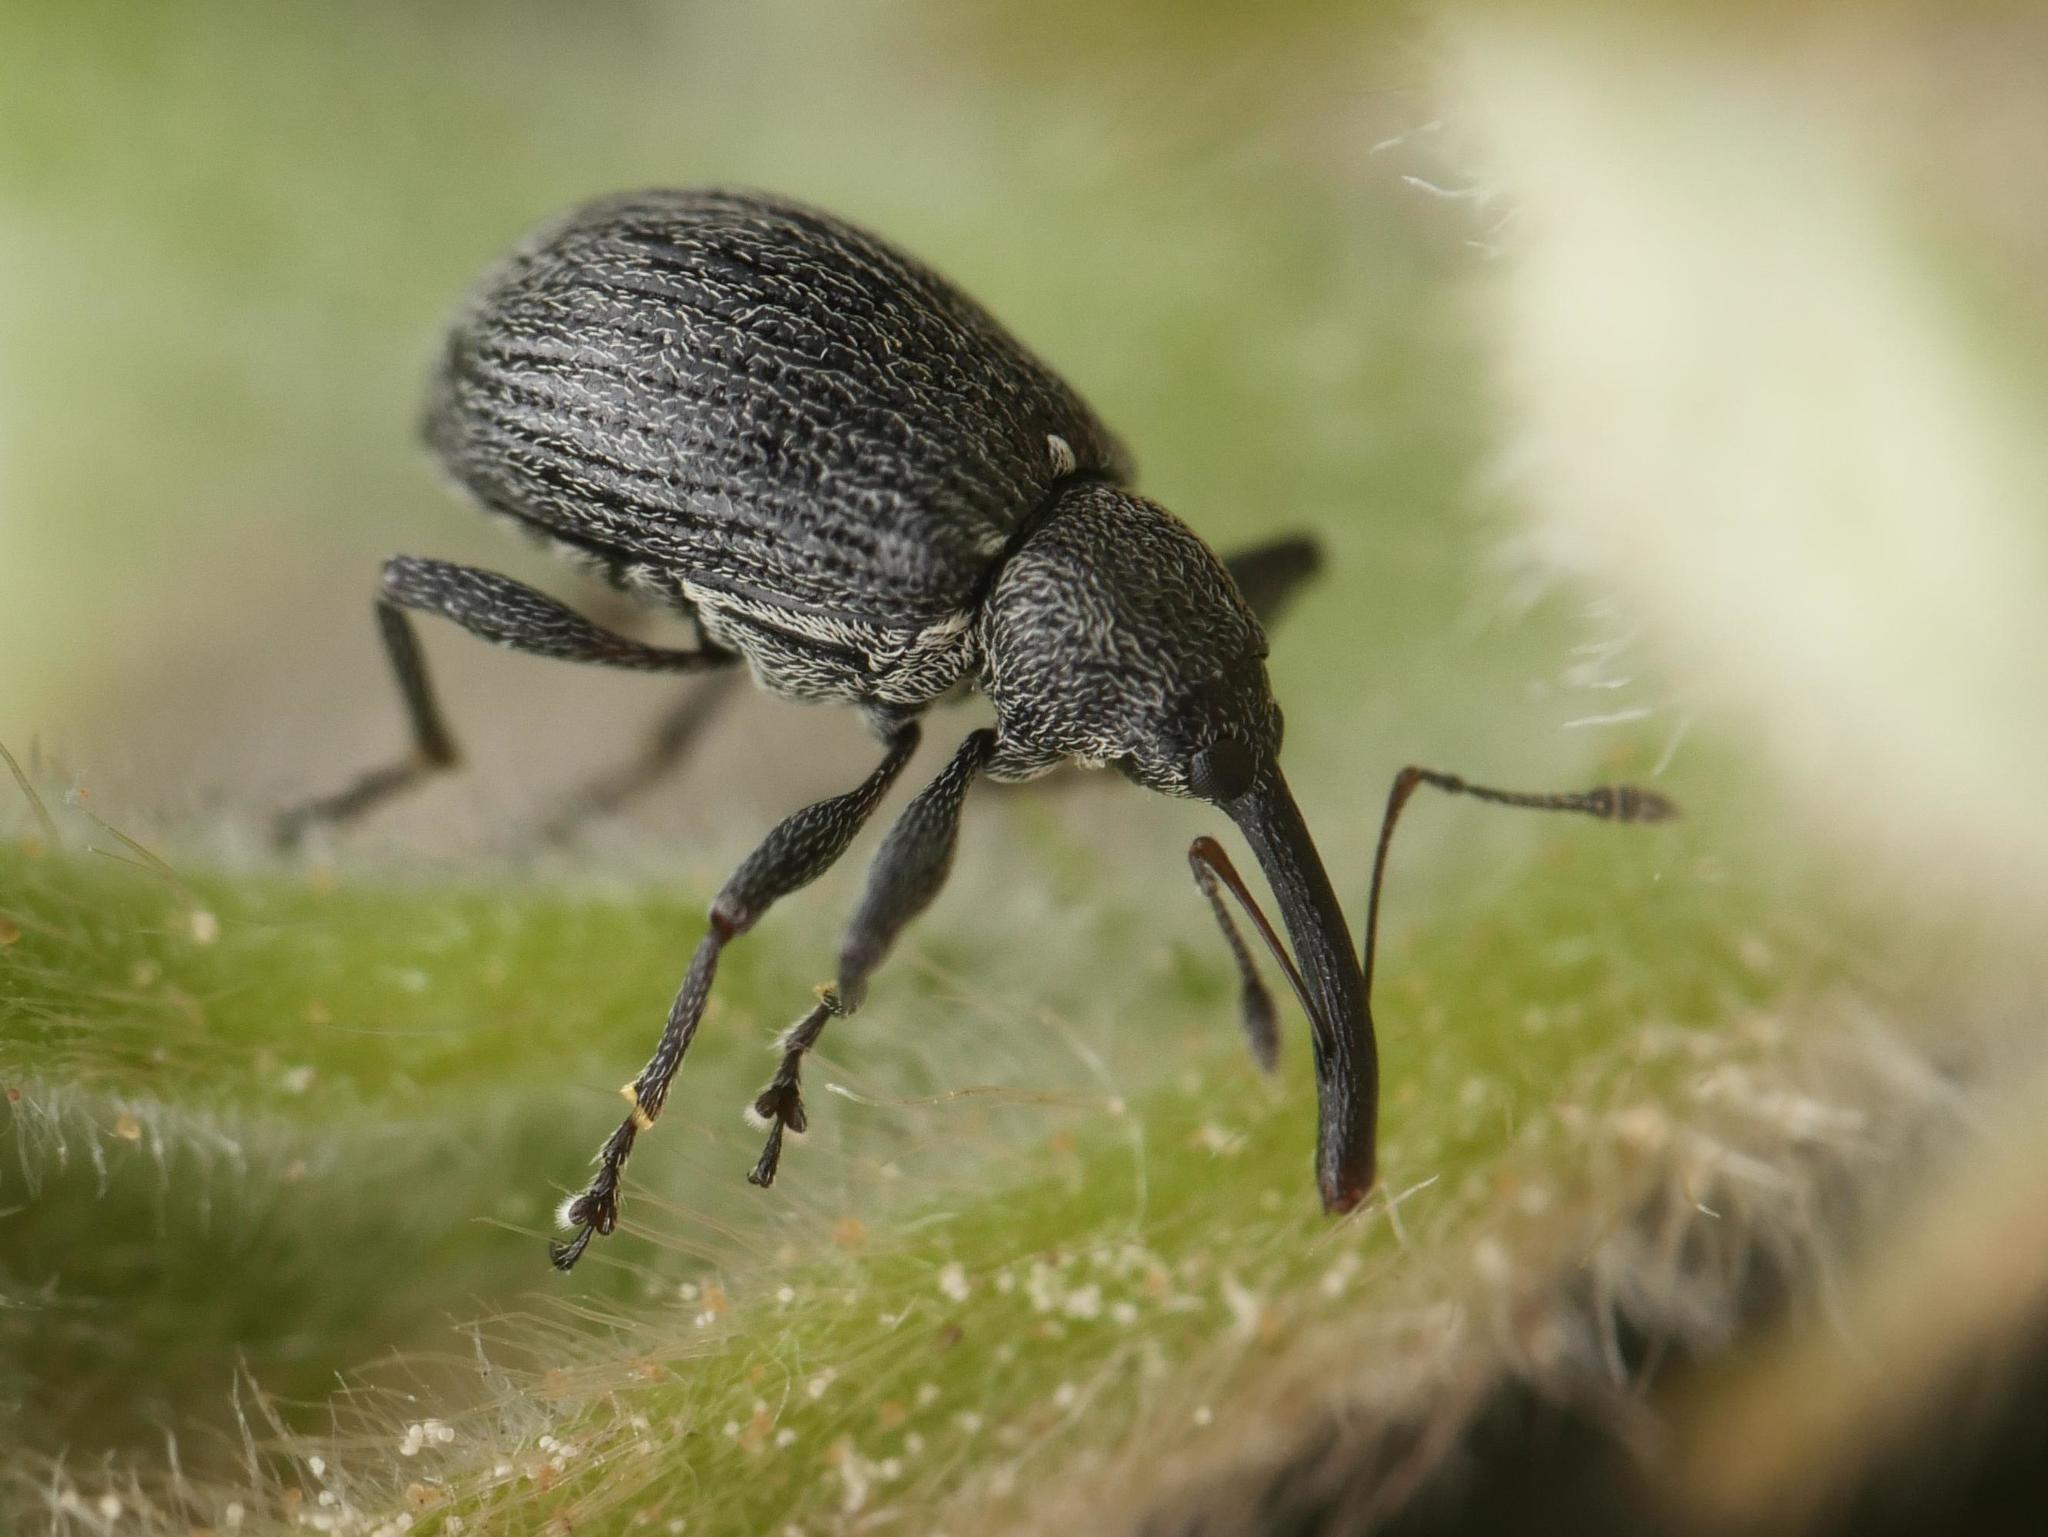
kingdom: Animalia
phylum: Arthropoda
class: Insecta
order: Coleoptera
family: Curculionidae
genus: Anthonomus
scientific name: Anthonomus rubi
